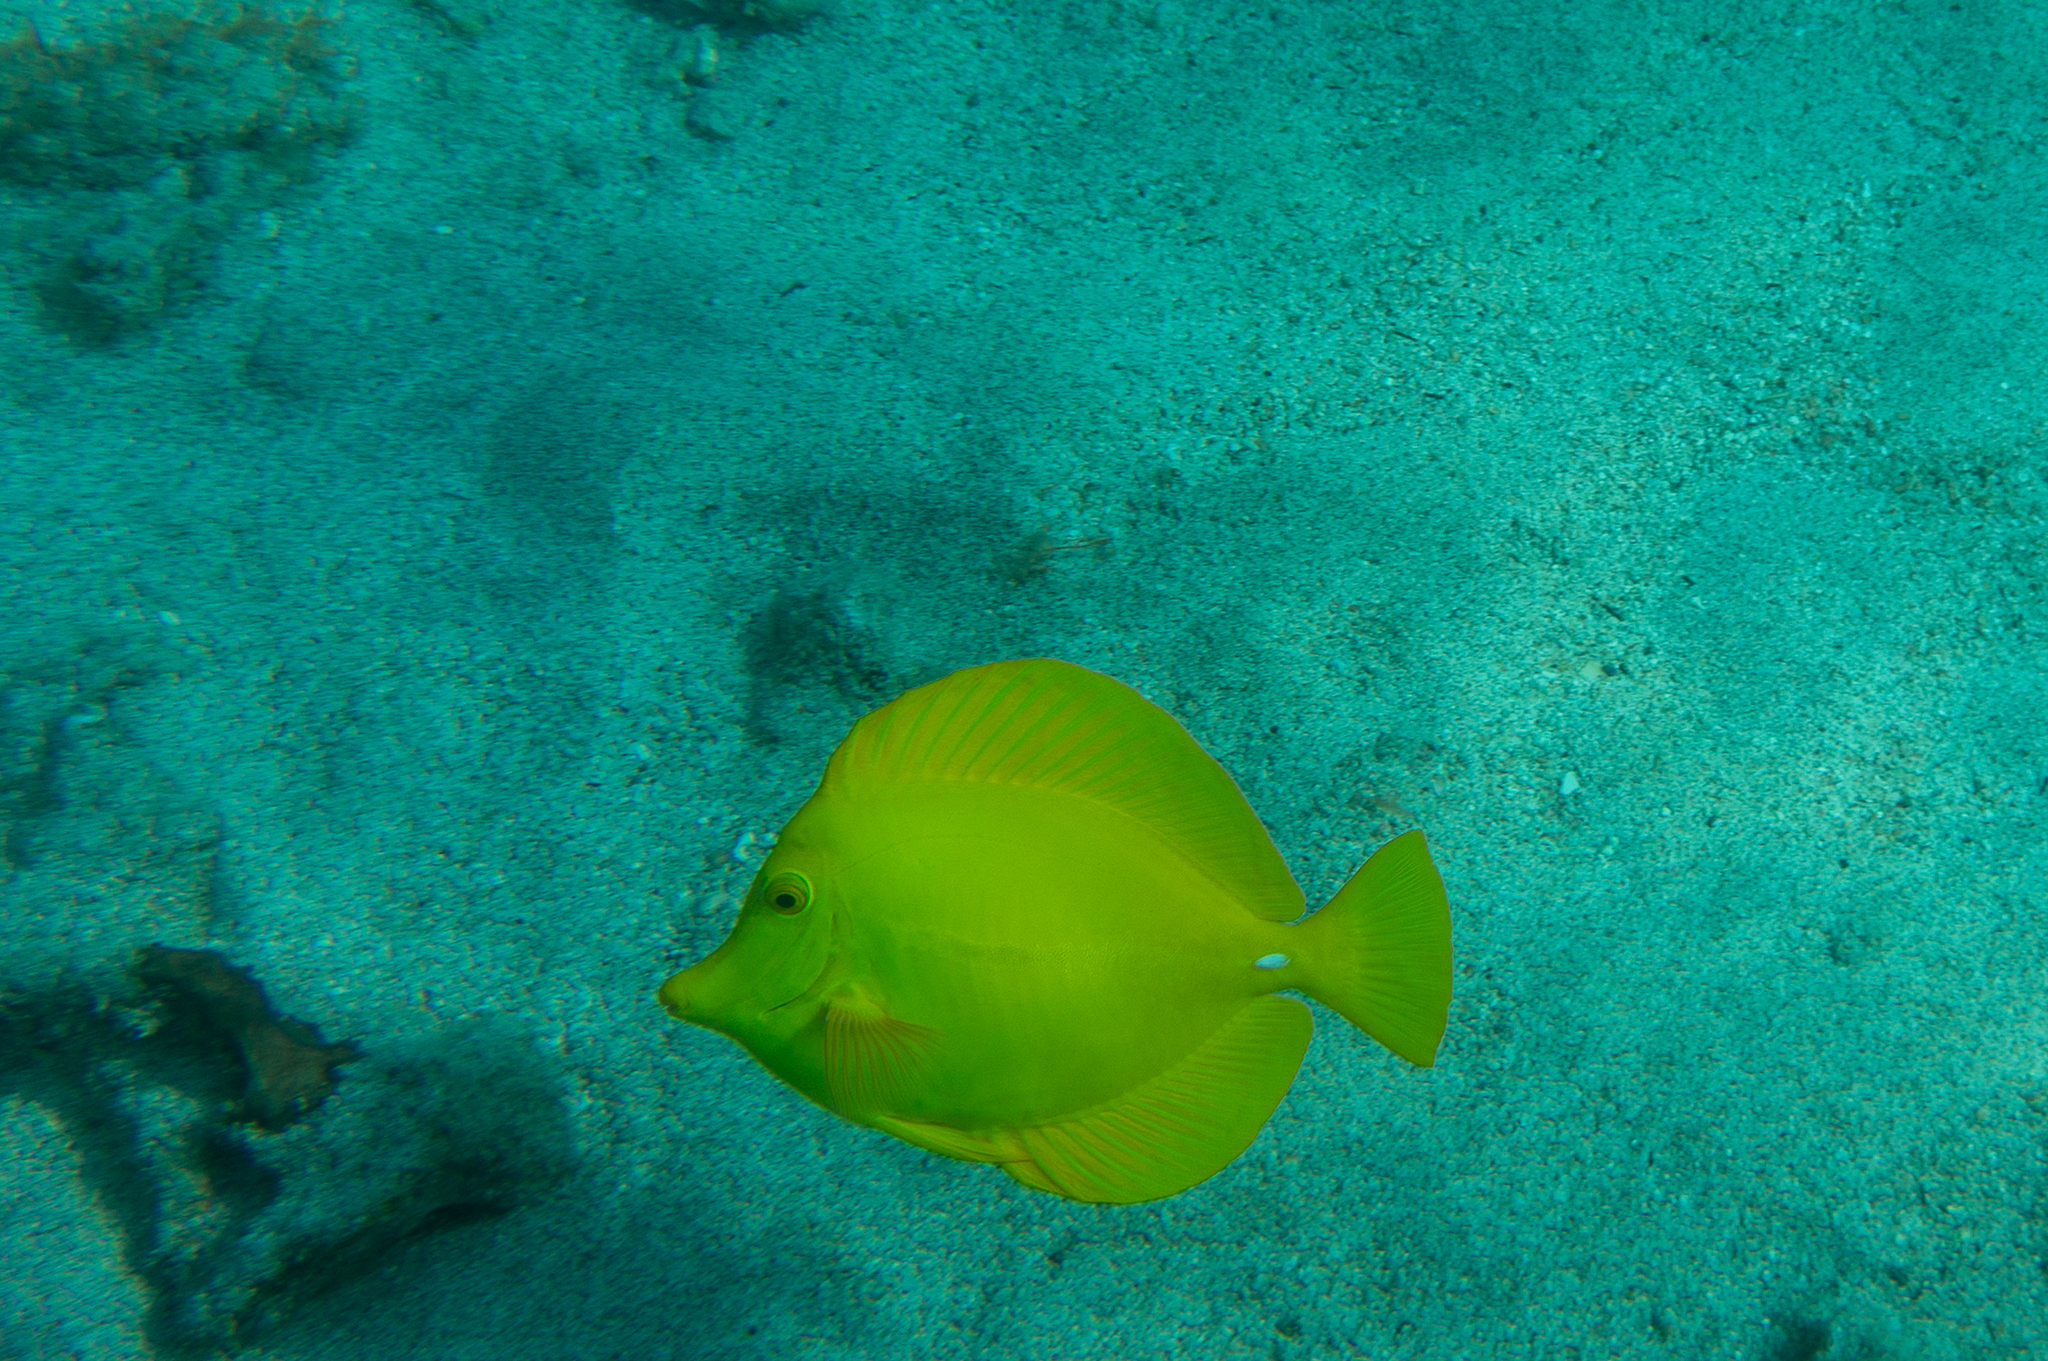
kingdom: Animalia
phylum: Chordata
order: Perciformes
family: Acanthuridae
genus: Zebrasoma
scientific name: Zebrasoma flavescens
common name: Yellow tang
